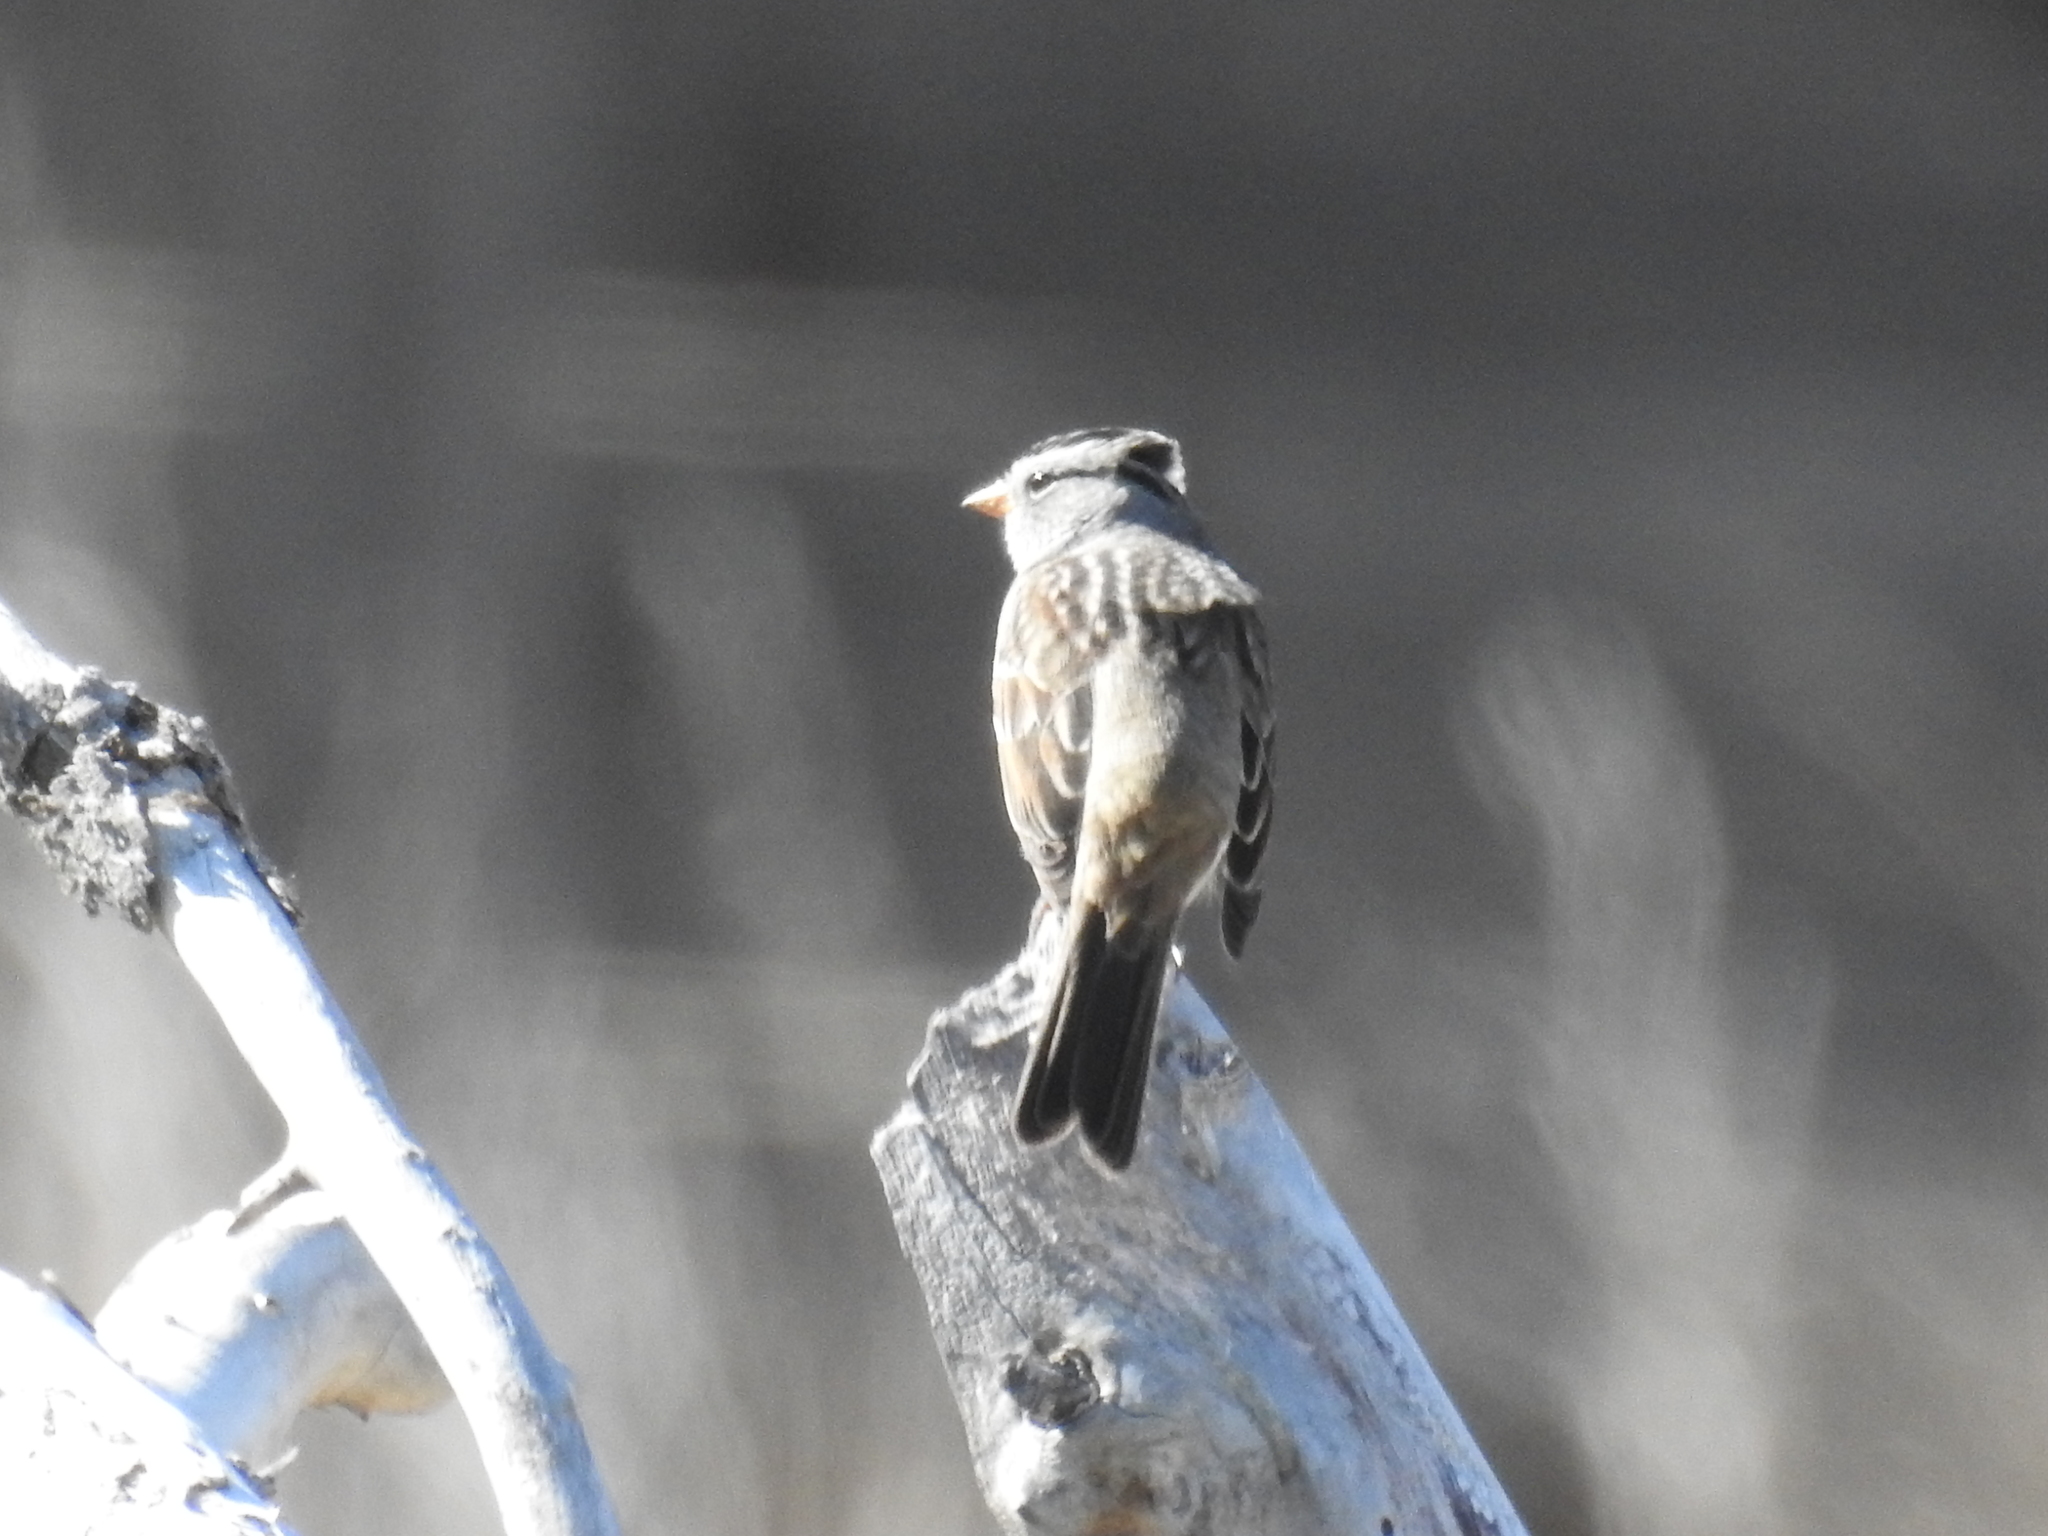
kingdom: Animalia
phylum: Chordata
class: Aves
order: Passeriformes
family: Passerellidae
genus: Zonotrichia
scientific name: Zonotrichia leucophrys
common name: White-crowned sparrow
